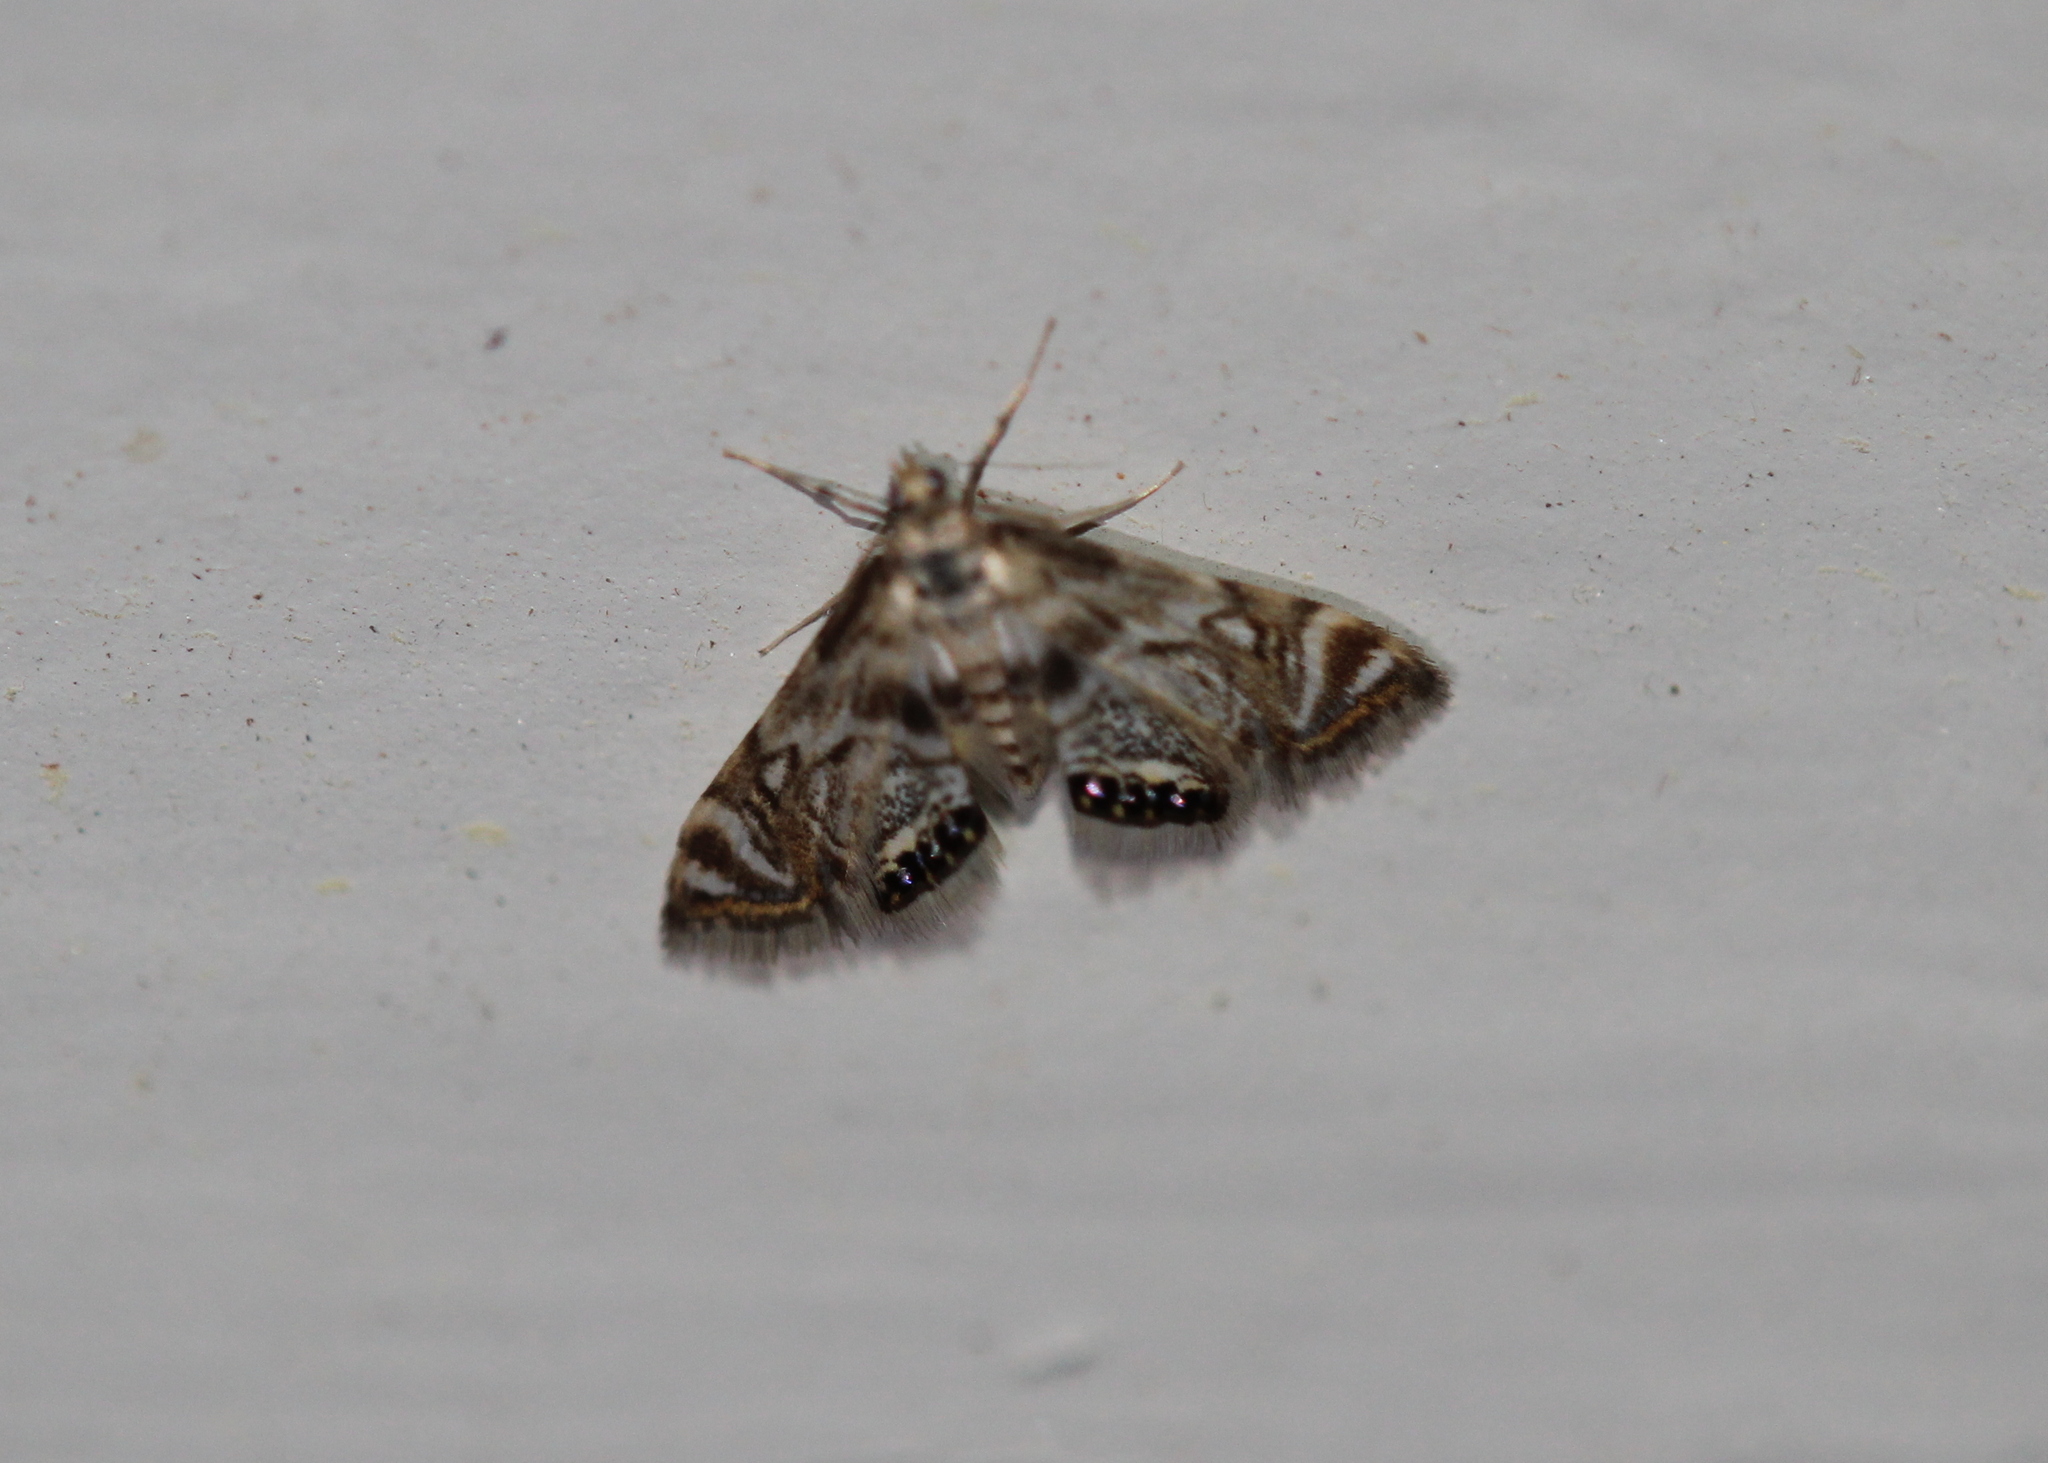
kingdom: Animalia
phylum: Arthropoda
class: Insecta
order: Lepidoptera
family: Crambidae
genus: Petrophila
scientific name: Petrophila canadensis
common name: Canadian petrophila
